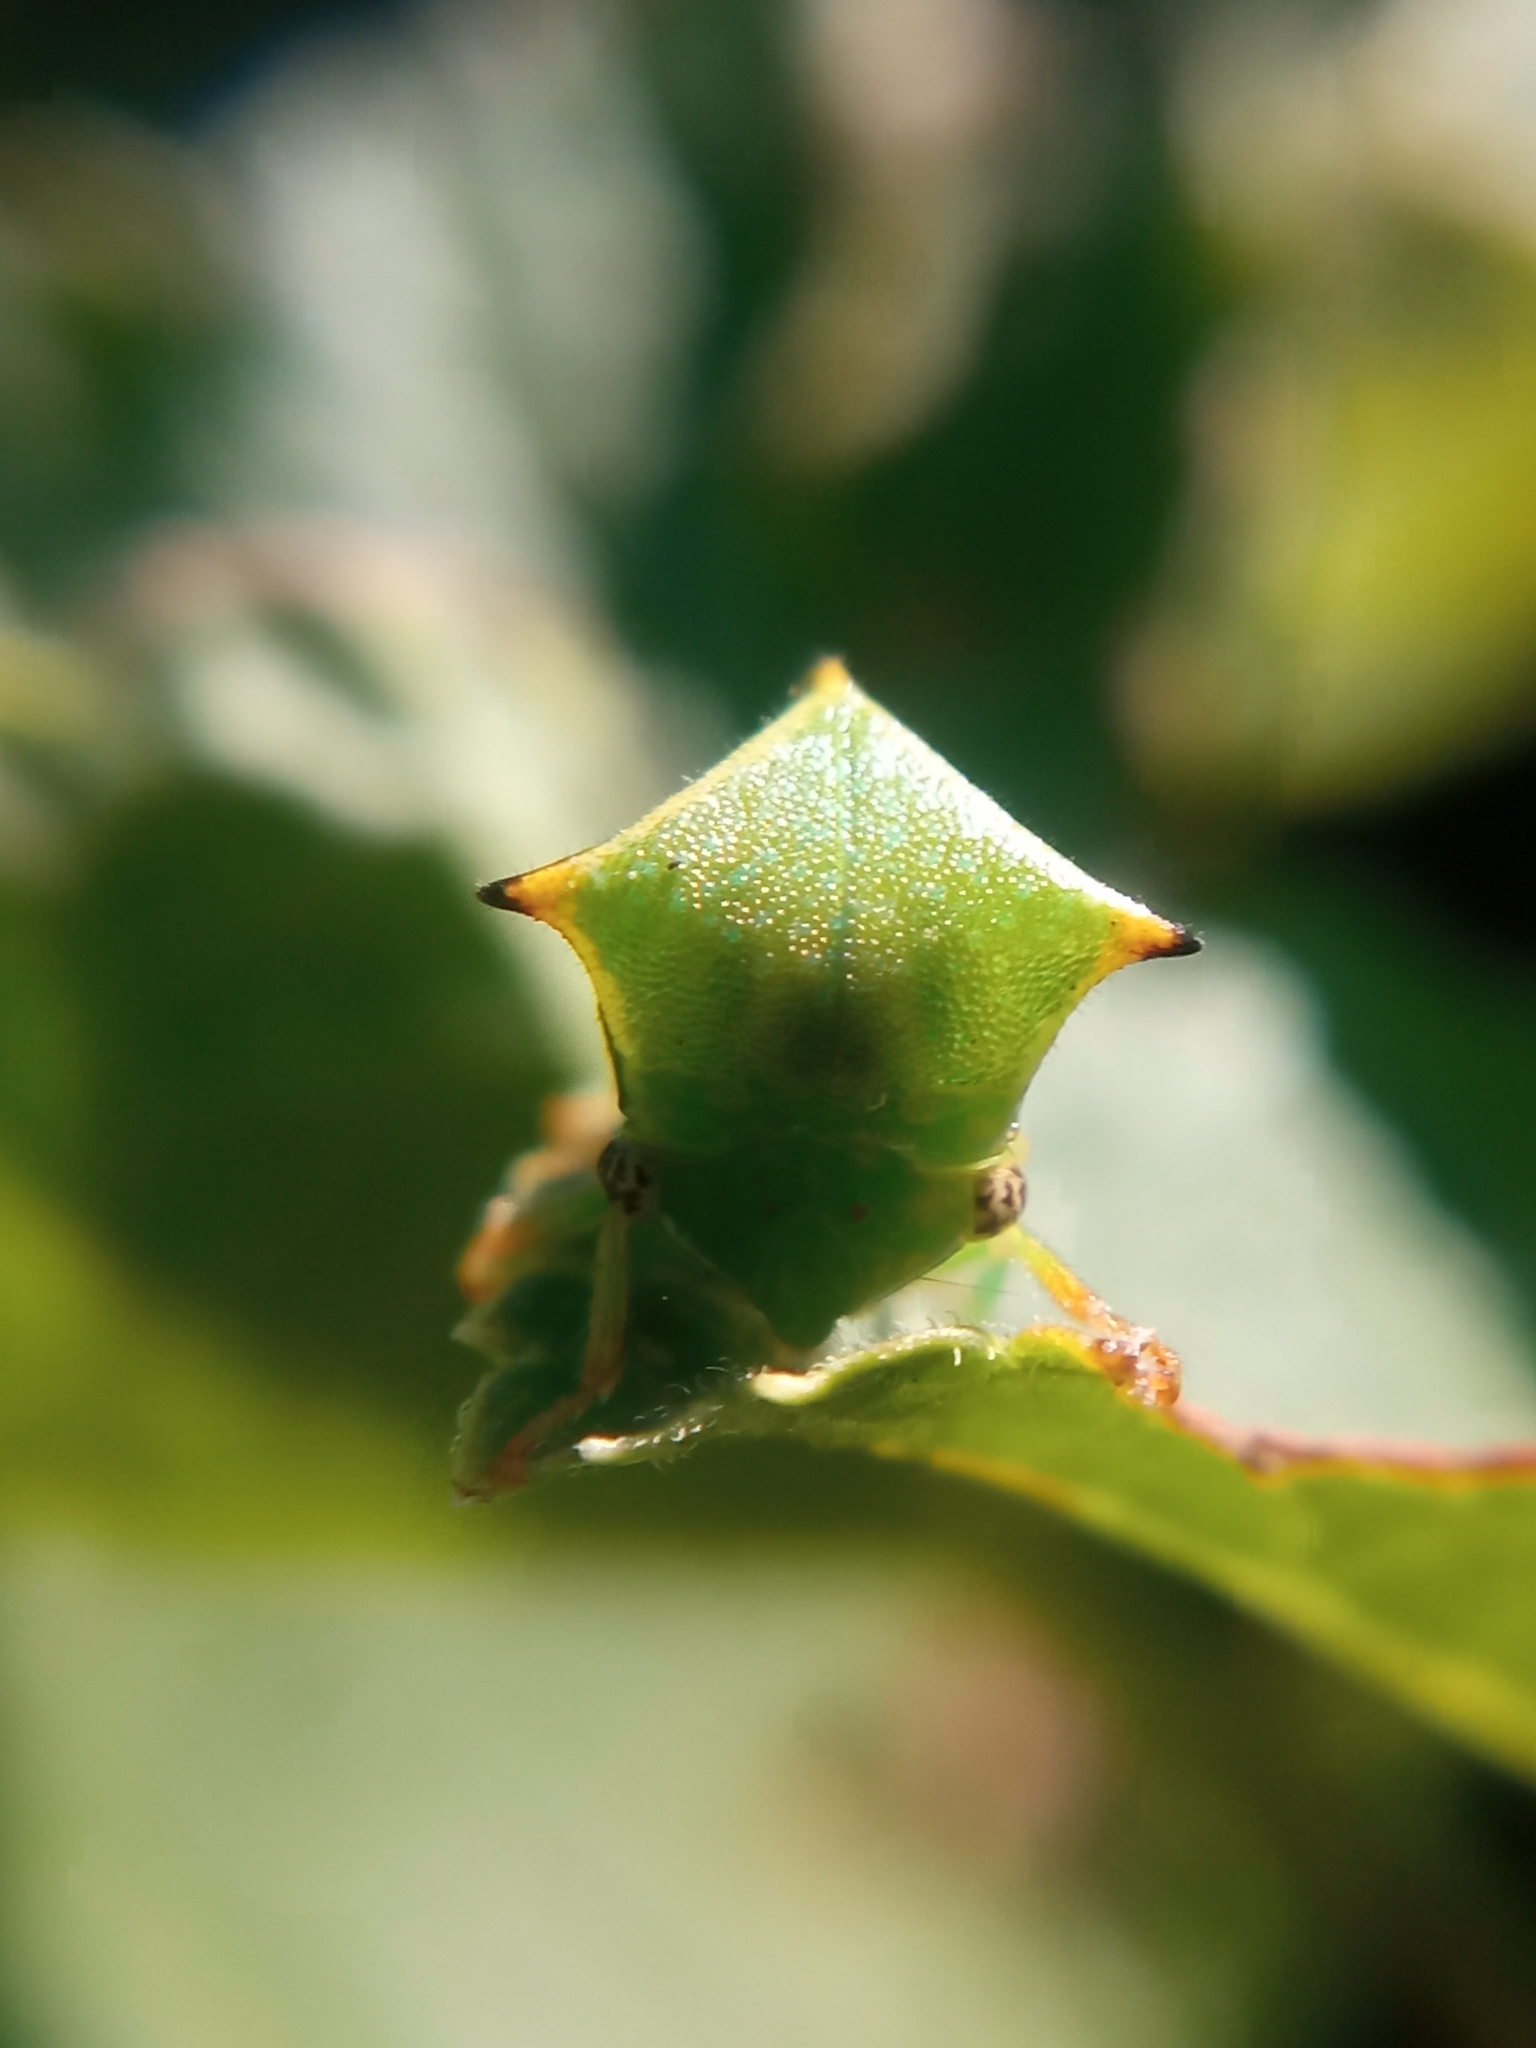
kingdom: Animalia
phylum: Arthropoda
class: Insecta
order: Hemiptera
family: Membracidae
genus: Stictocephala
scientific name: Stictocephala bisonia
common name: American buffalo treehopper
